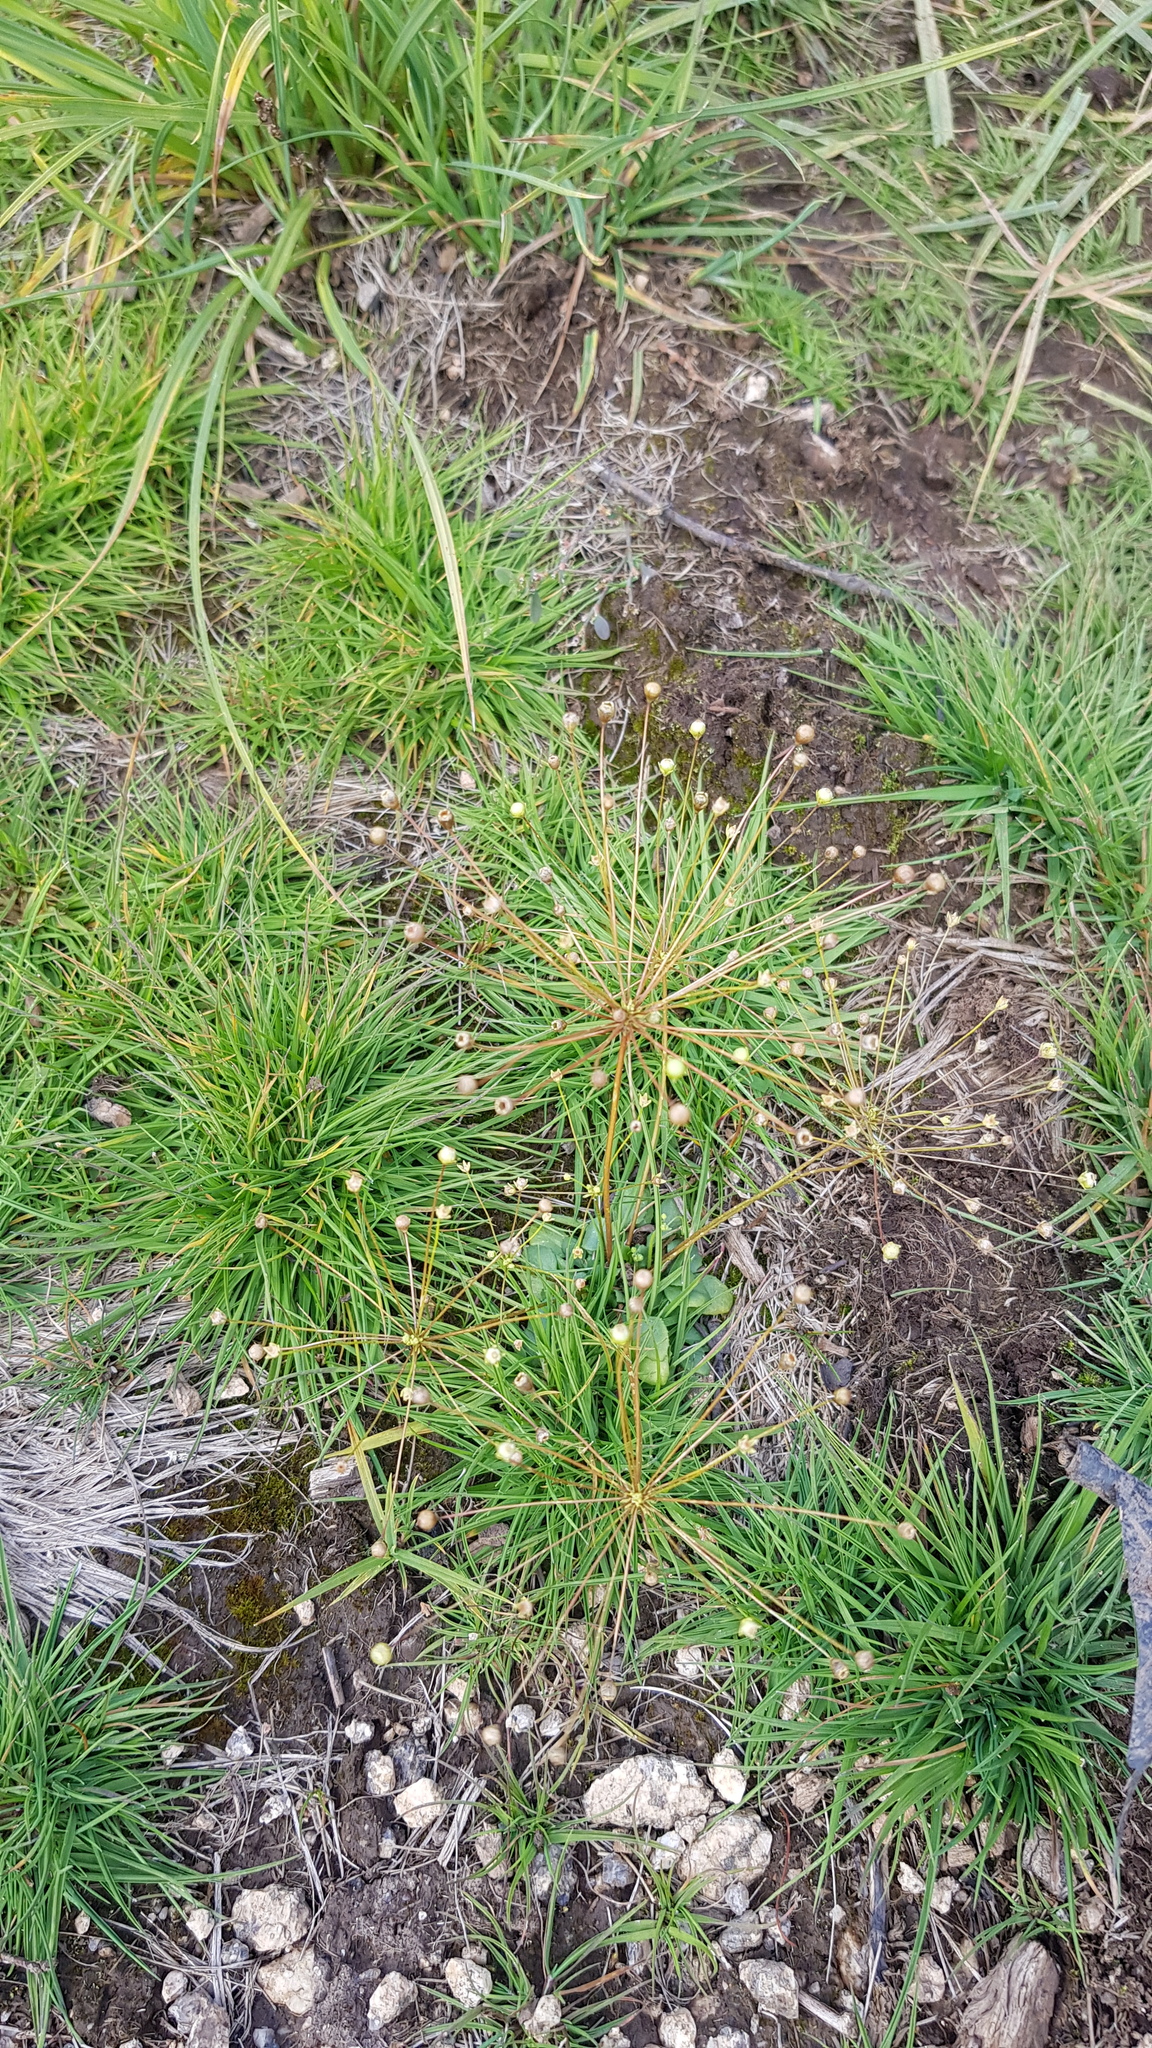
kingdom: Plantae
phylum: Tracheophyta
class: Magnoliopsida
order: Ericales
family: Primulaceae
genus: Androsace
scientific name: Androsace septentrionalis
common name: Hairy northern fairy-candelabra
